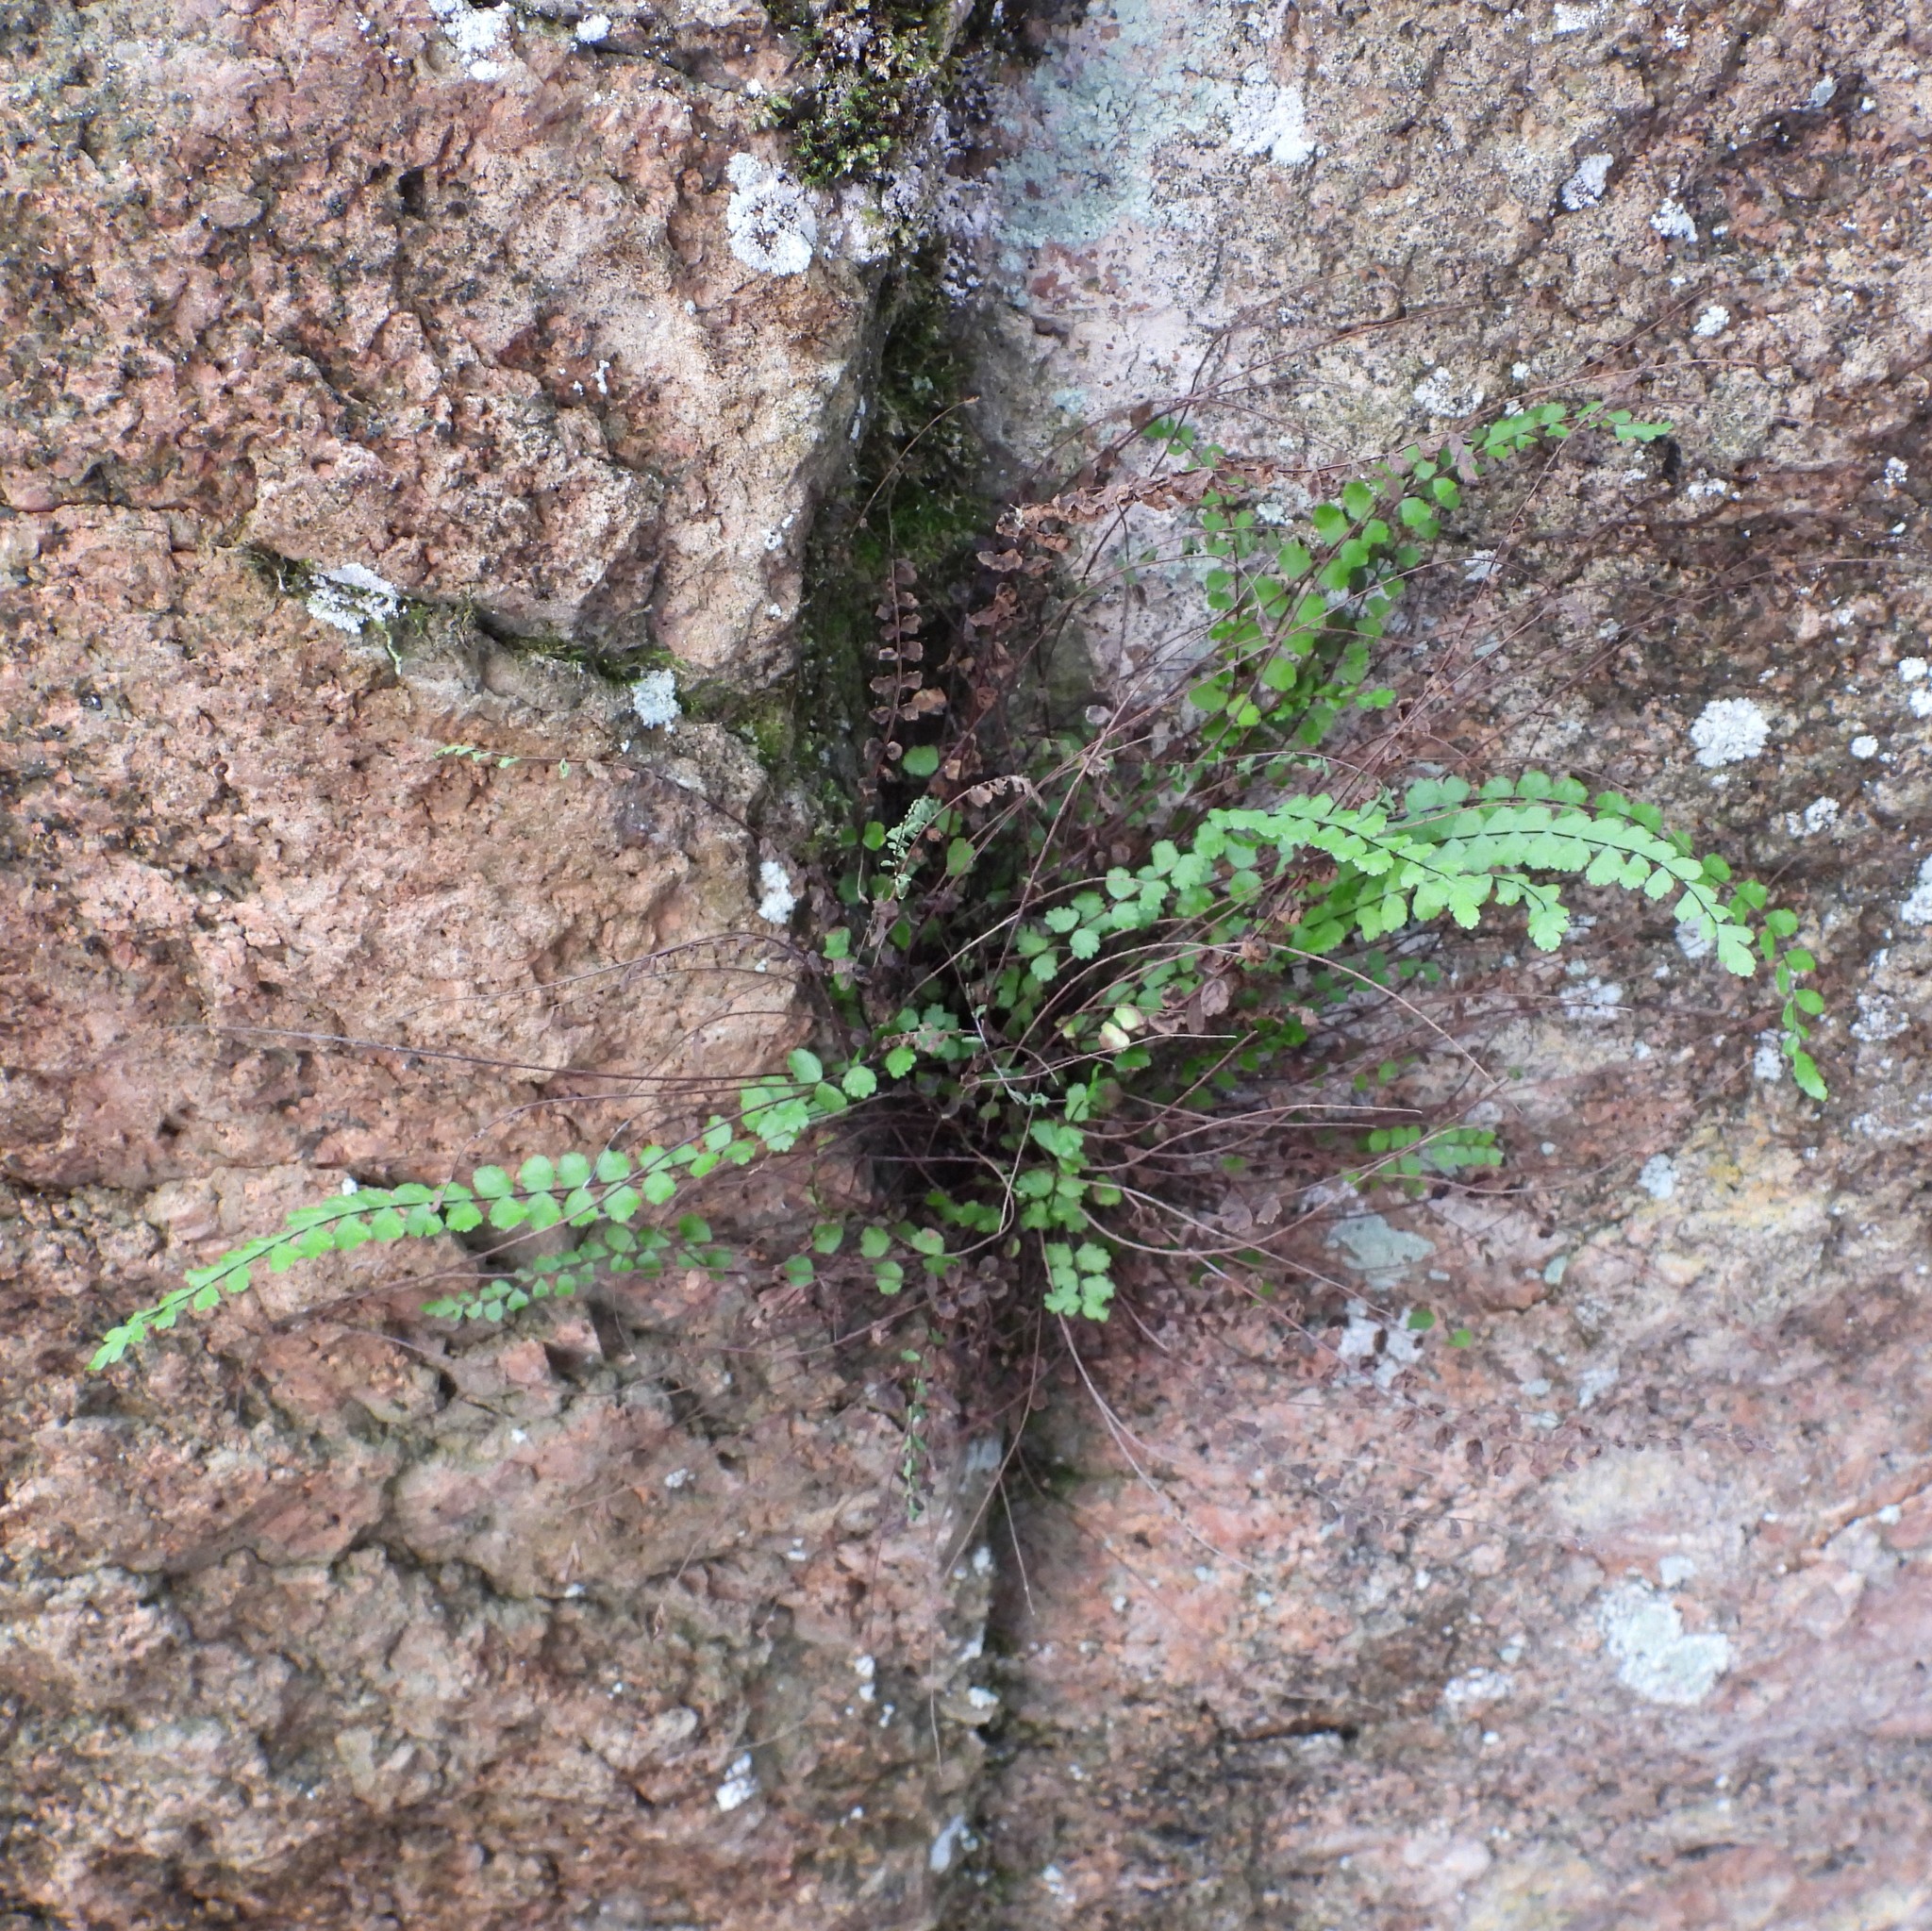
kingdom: Plantae
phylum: Tracheophyta
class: Polypodiopsida
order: Polypodiales
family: Aspleniaceae
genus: Asplenium
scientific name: Asplenium trichomanes
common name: Maidenhair spleenwort
